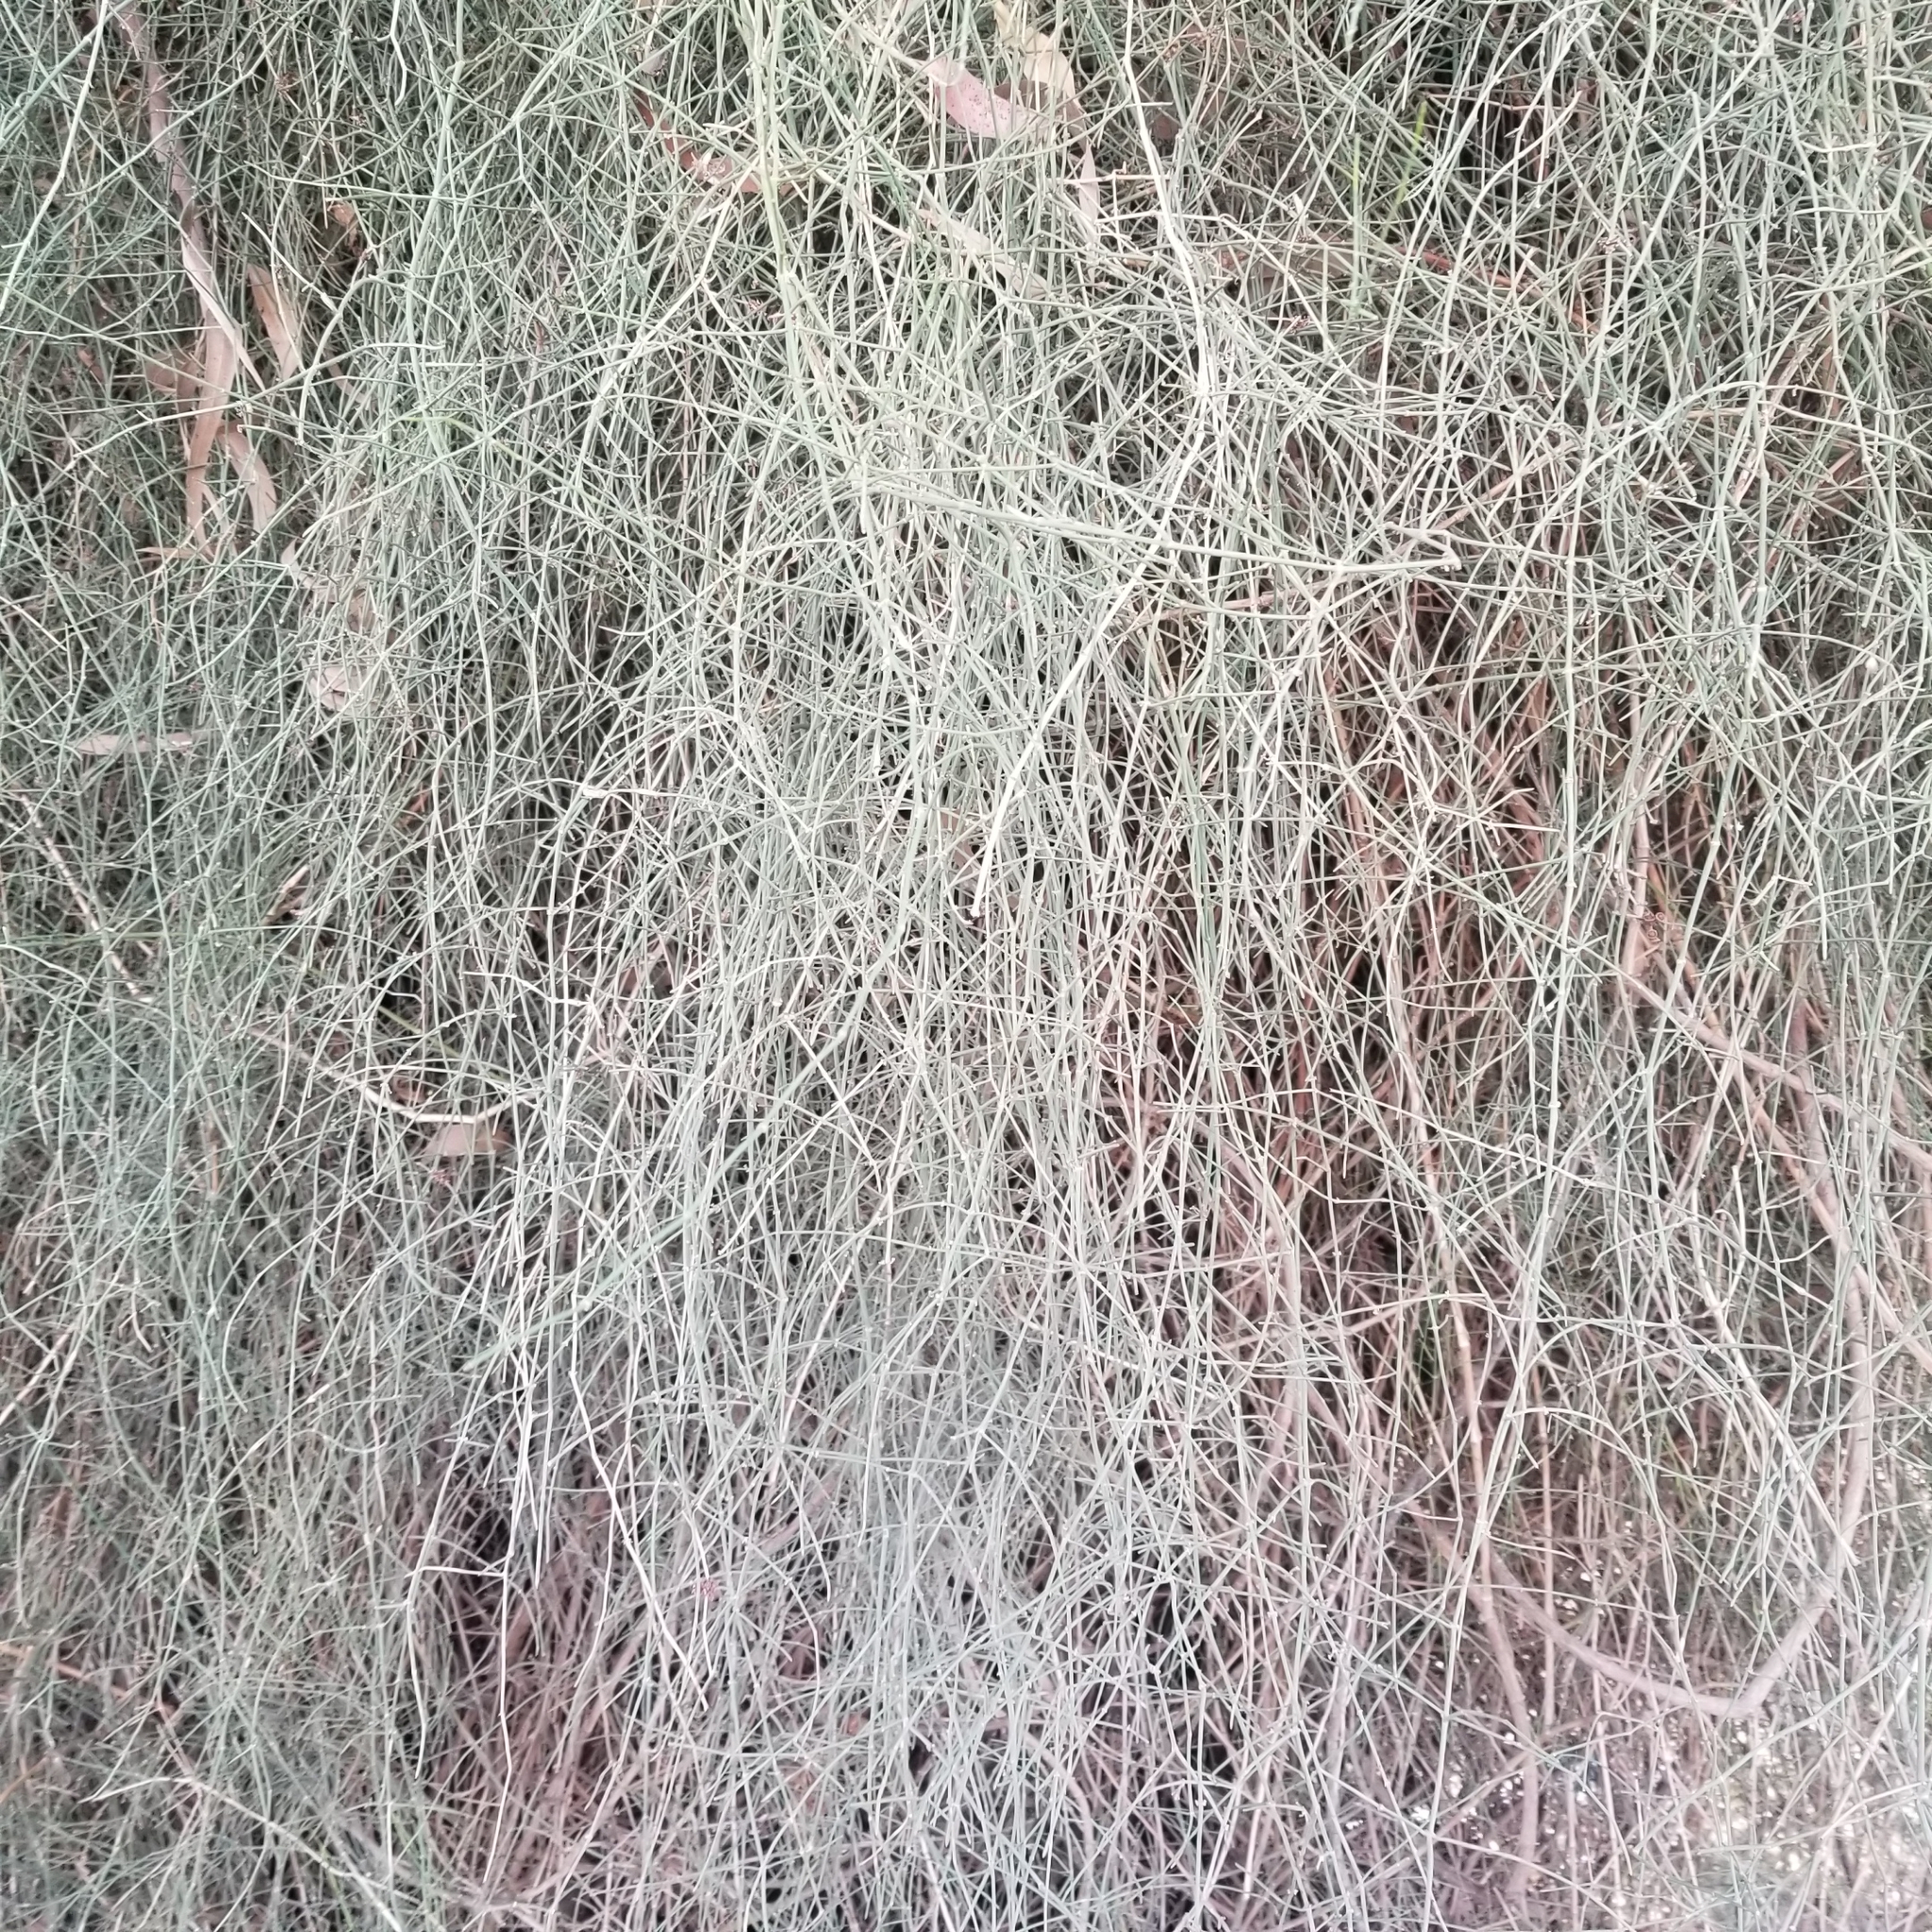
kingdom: Plantae
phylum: Tracheophyta
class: Magnoliopsida
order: Fabales
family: Fabaceae
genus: Parkinsonia
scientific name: Parkinsonia aculeata
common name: Jerusalem thorn
